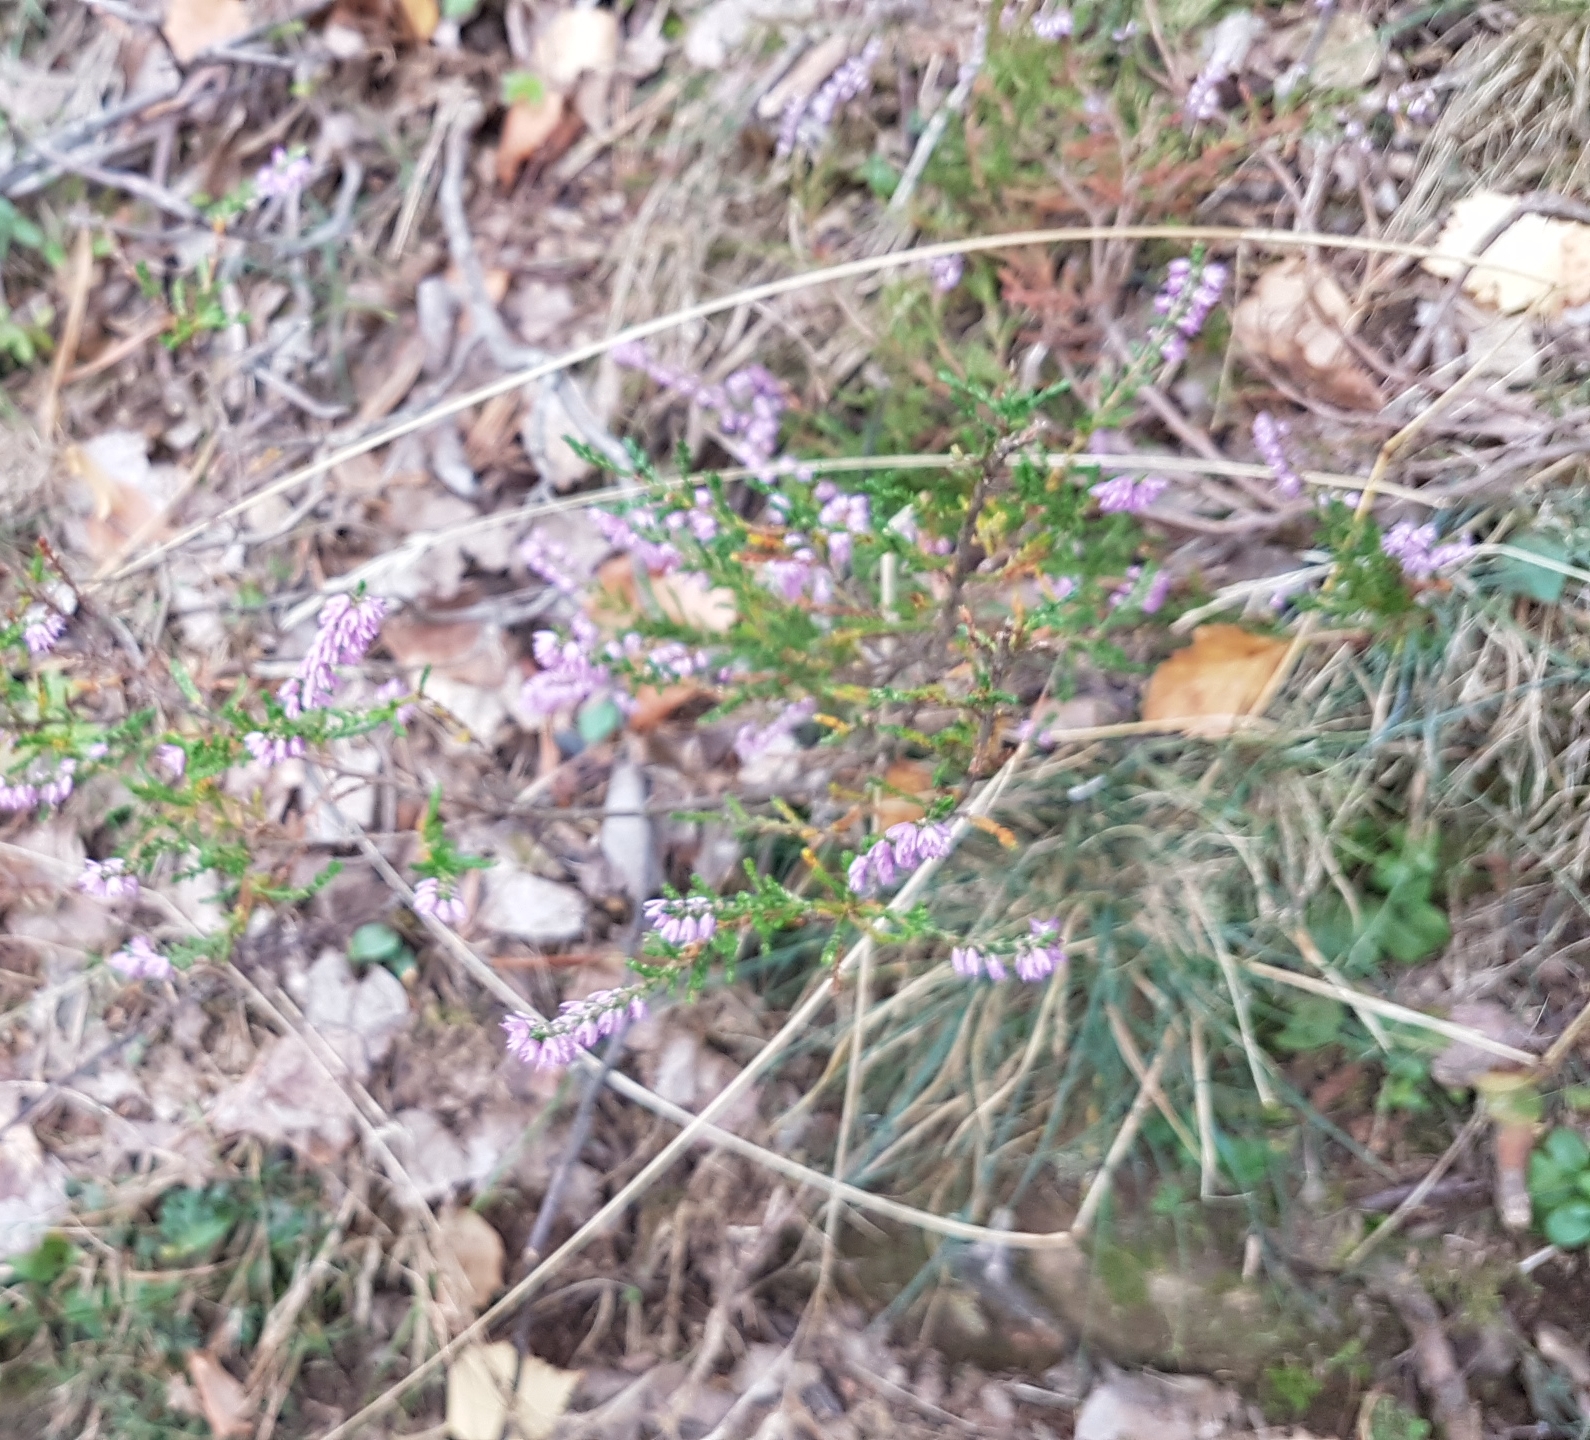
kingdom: Plantae
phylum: Tracheophyta
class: Magnoliopsida
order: Ericales
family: Ericaceae
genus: Calluna
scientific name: Calluna vulgaris
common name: Heather
